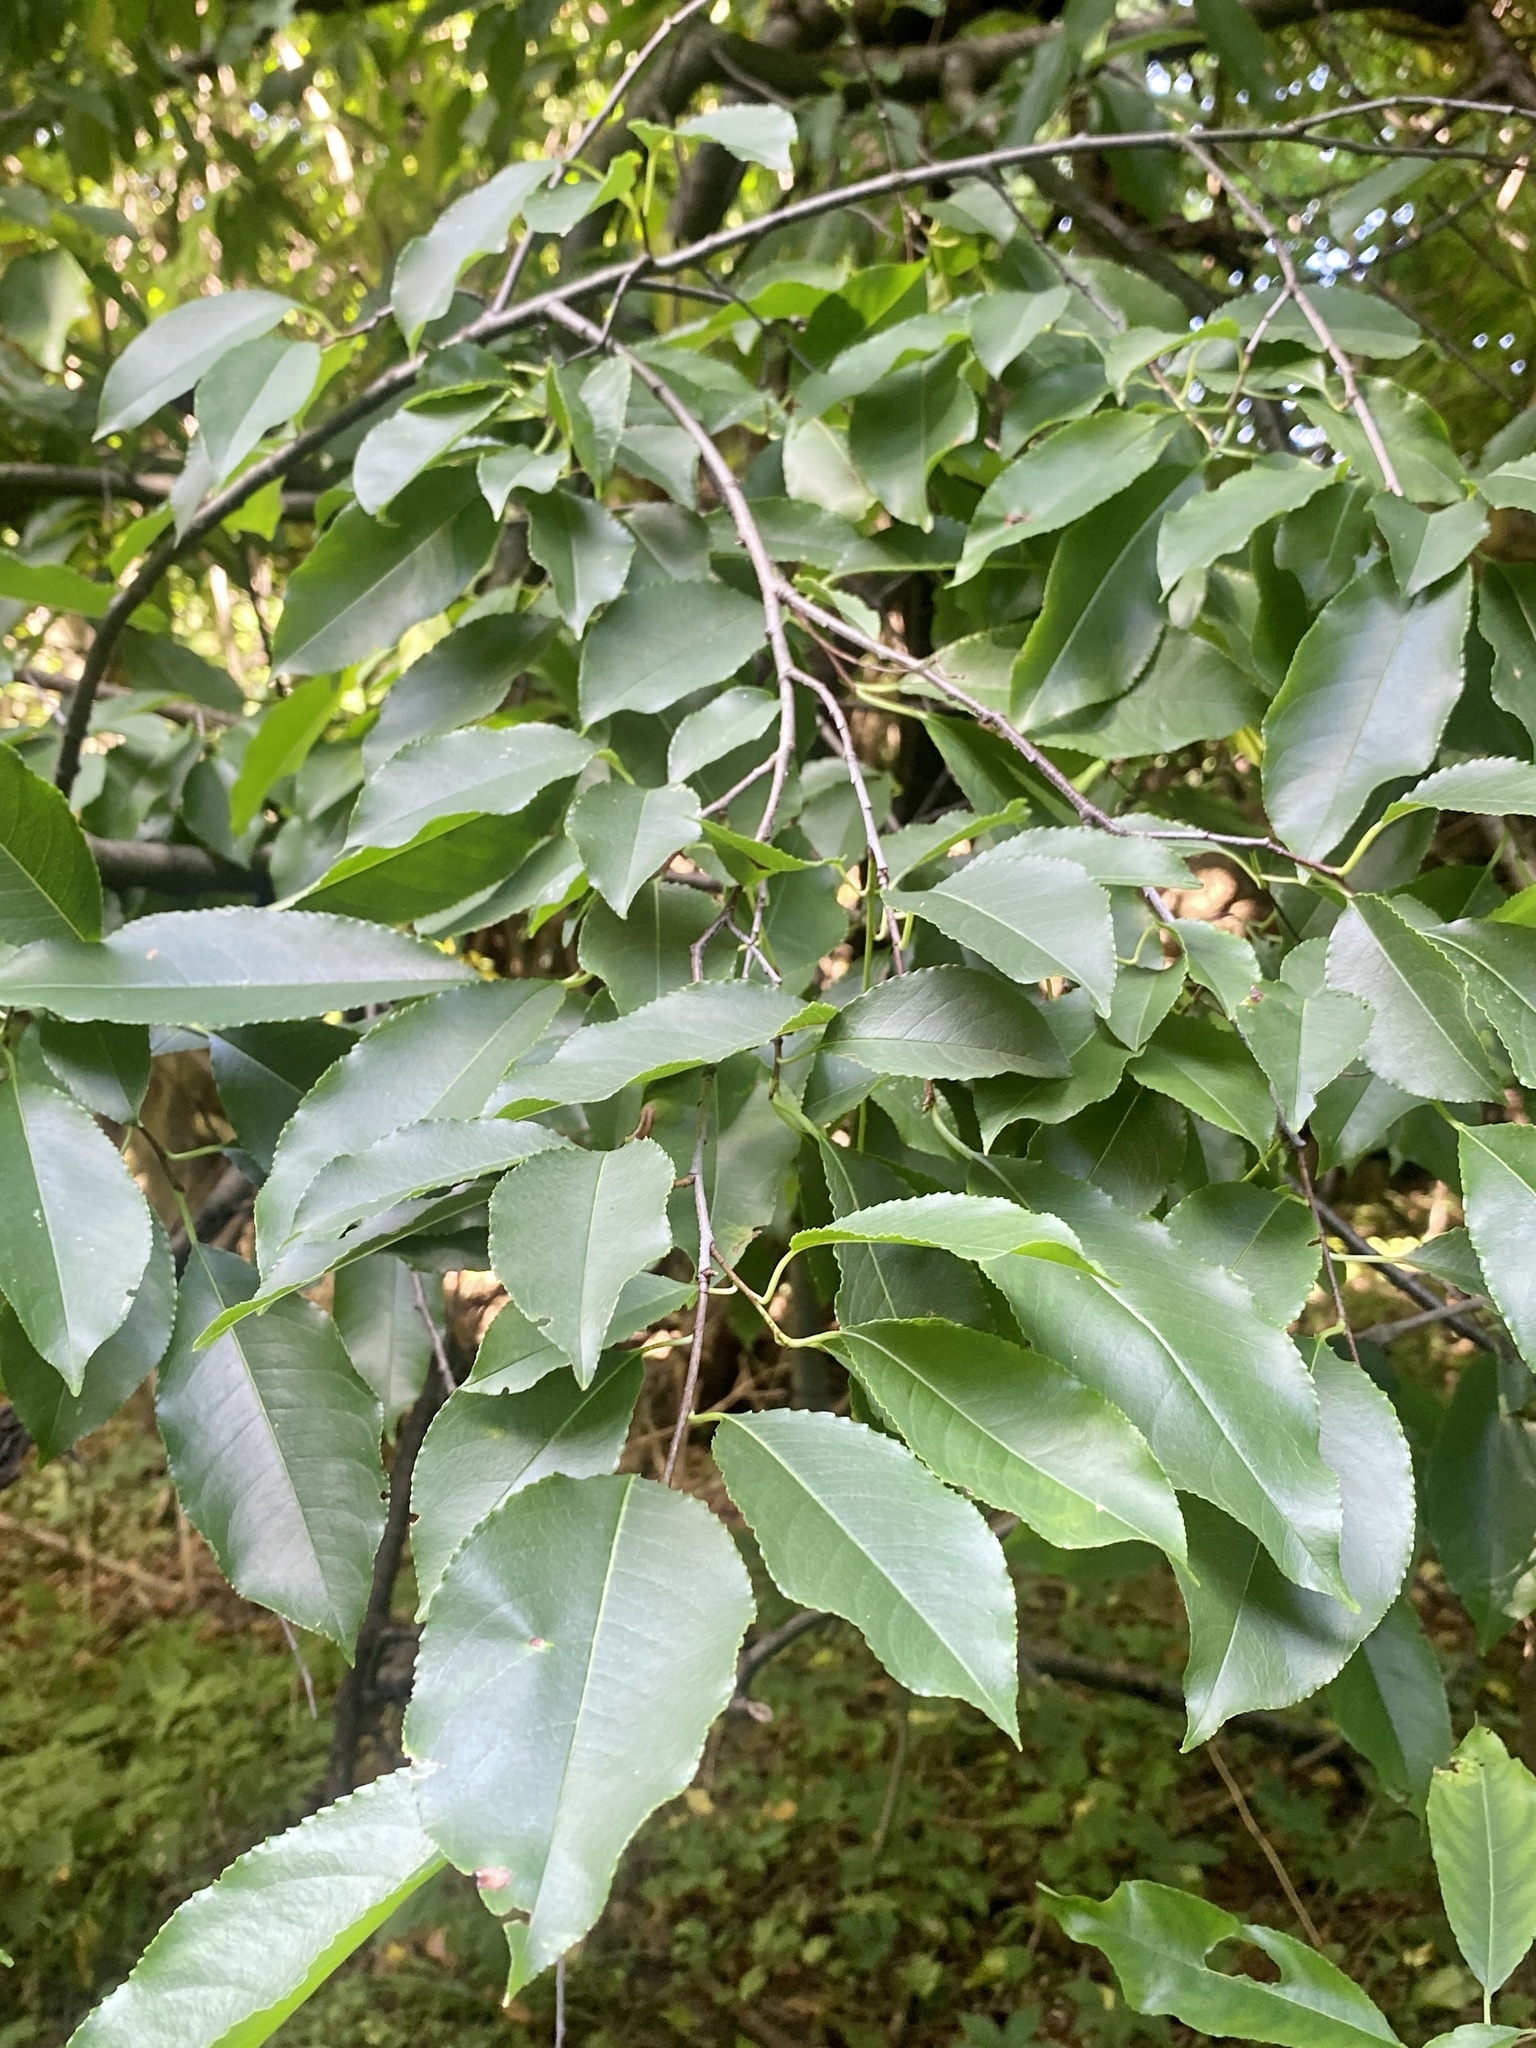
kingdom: Plantae
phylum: Tracheophyta
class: Magnoliopsida
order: Rosales
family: Rosaceae
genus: Prunus
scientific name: Prunus serotina
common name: Black cherry
